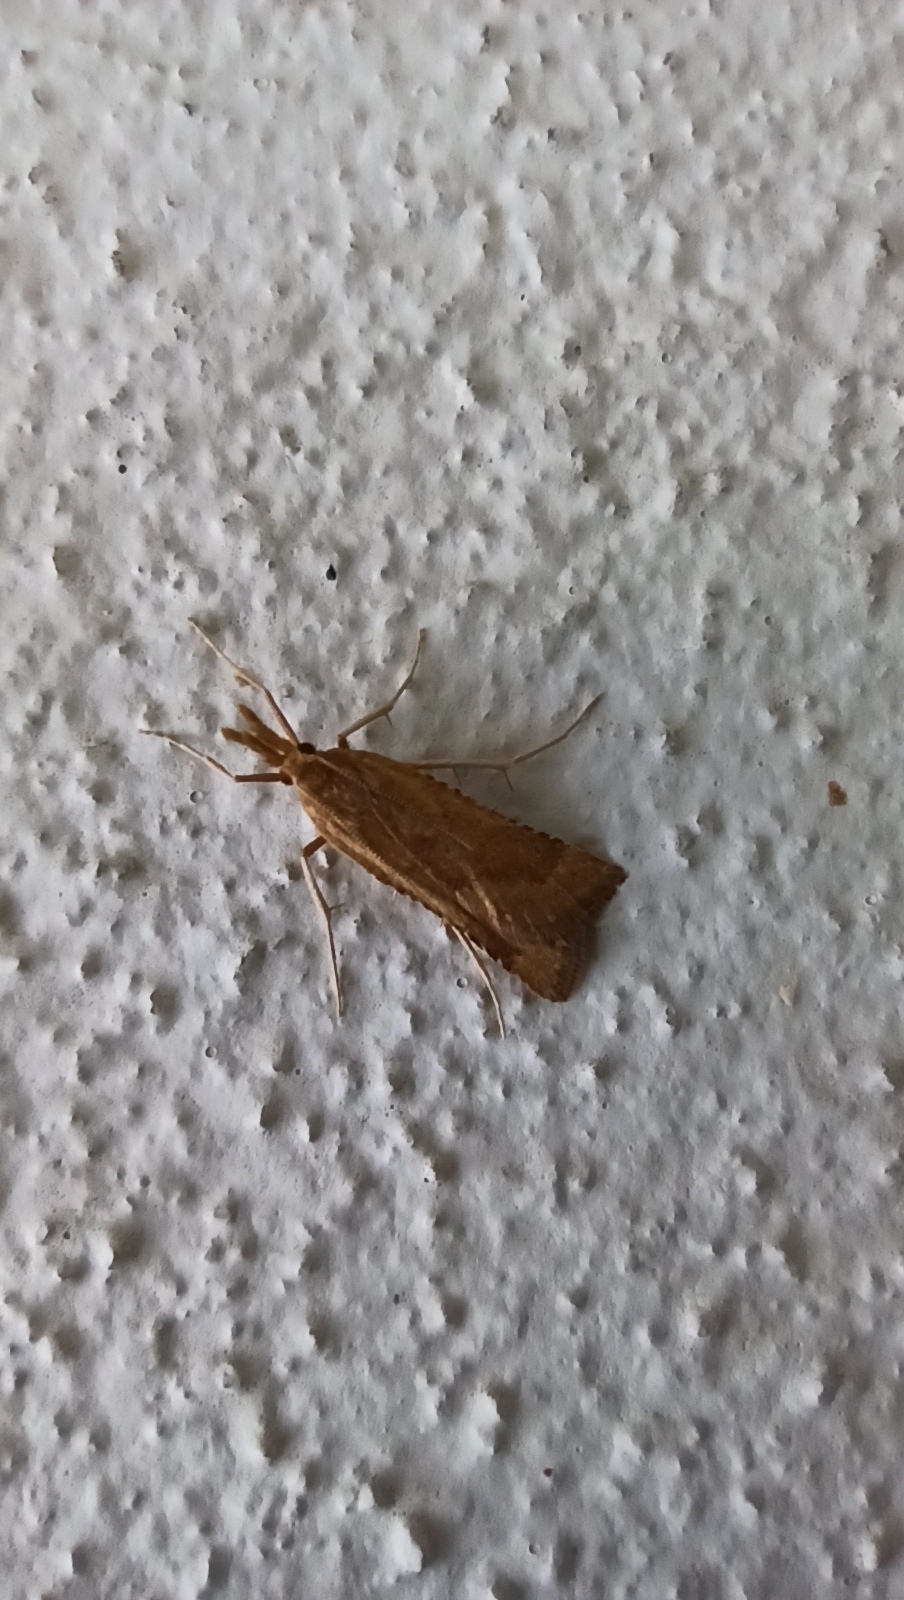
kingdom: Animalia
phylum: Arthropoda
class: Insecta
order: Lepidoptera
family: Pyralidae
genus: Synaphe
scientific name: Synaphe punctalis
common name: Long-legged tabby
